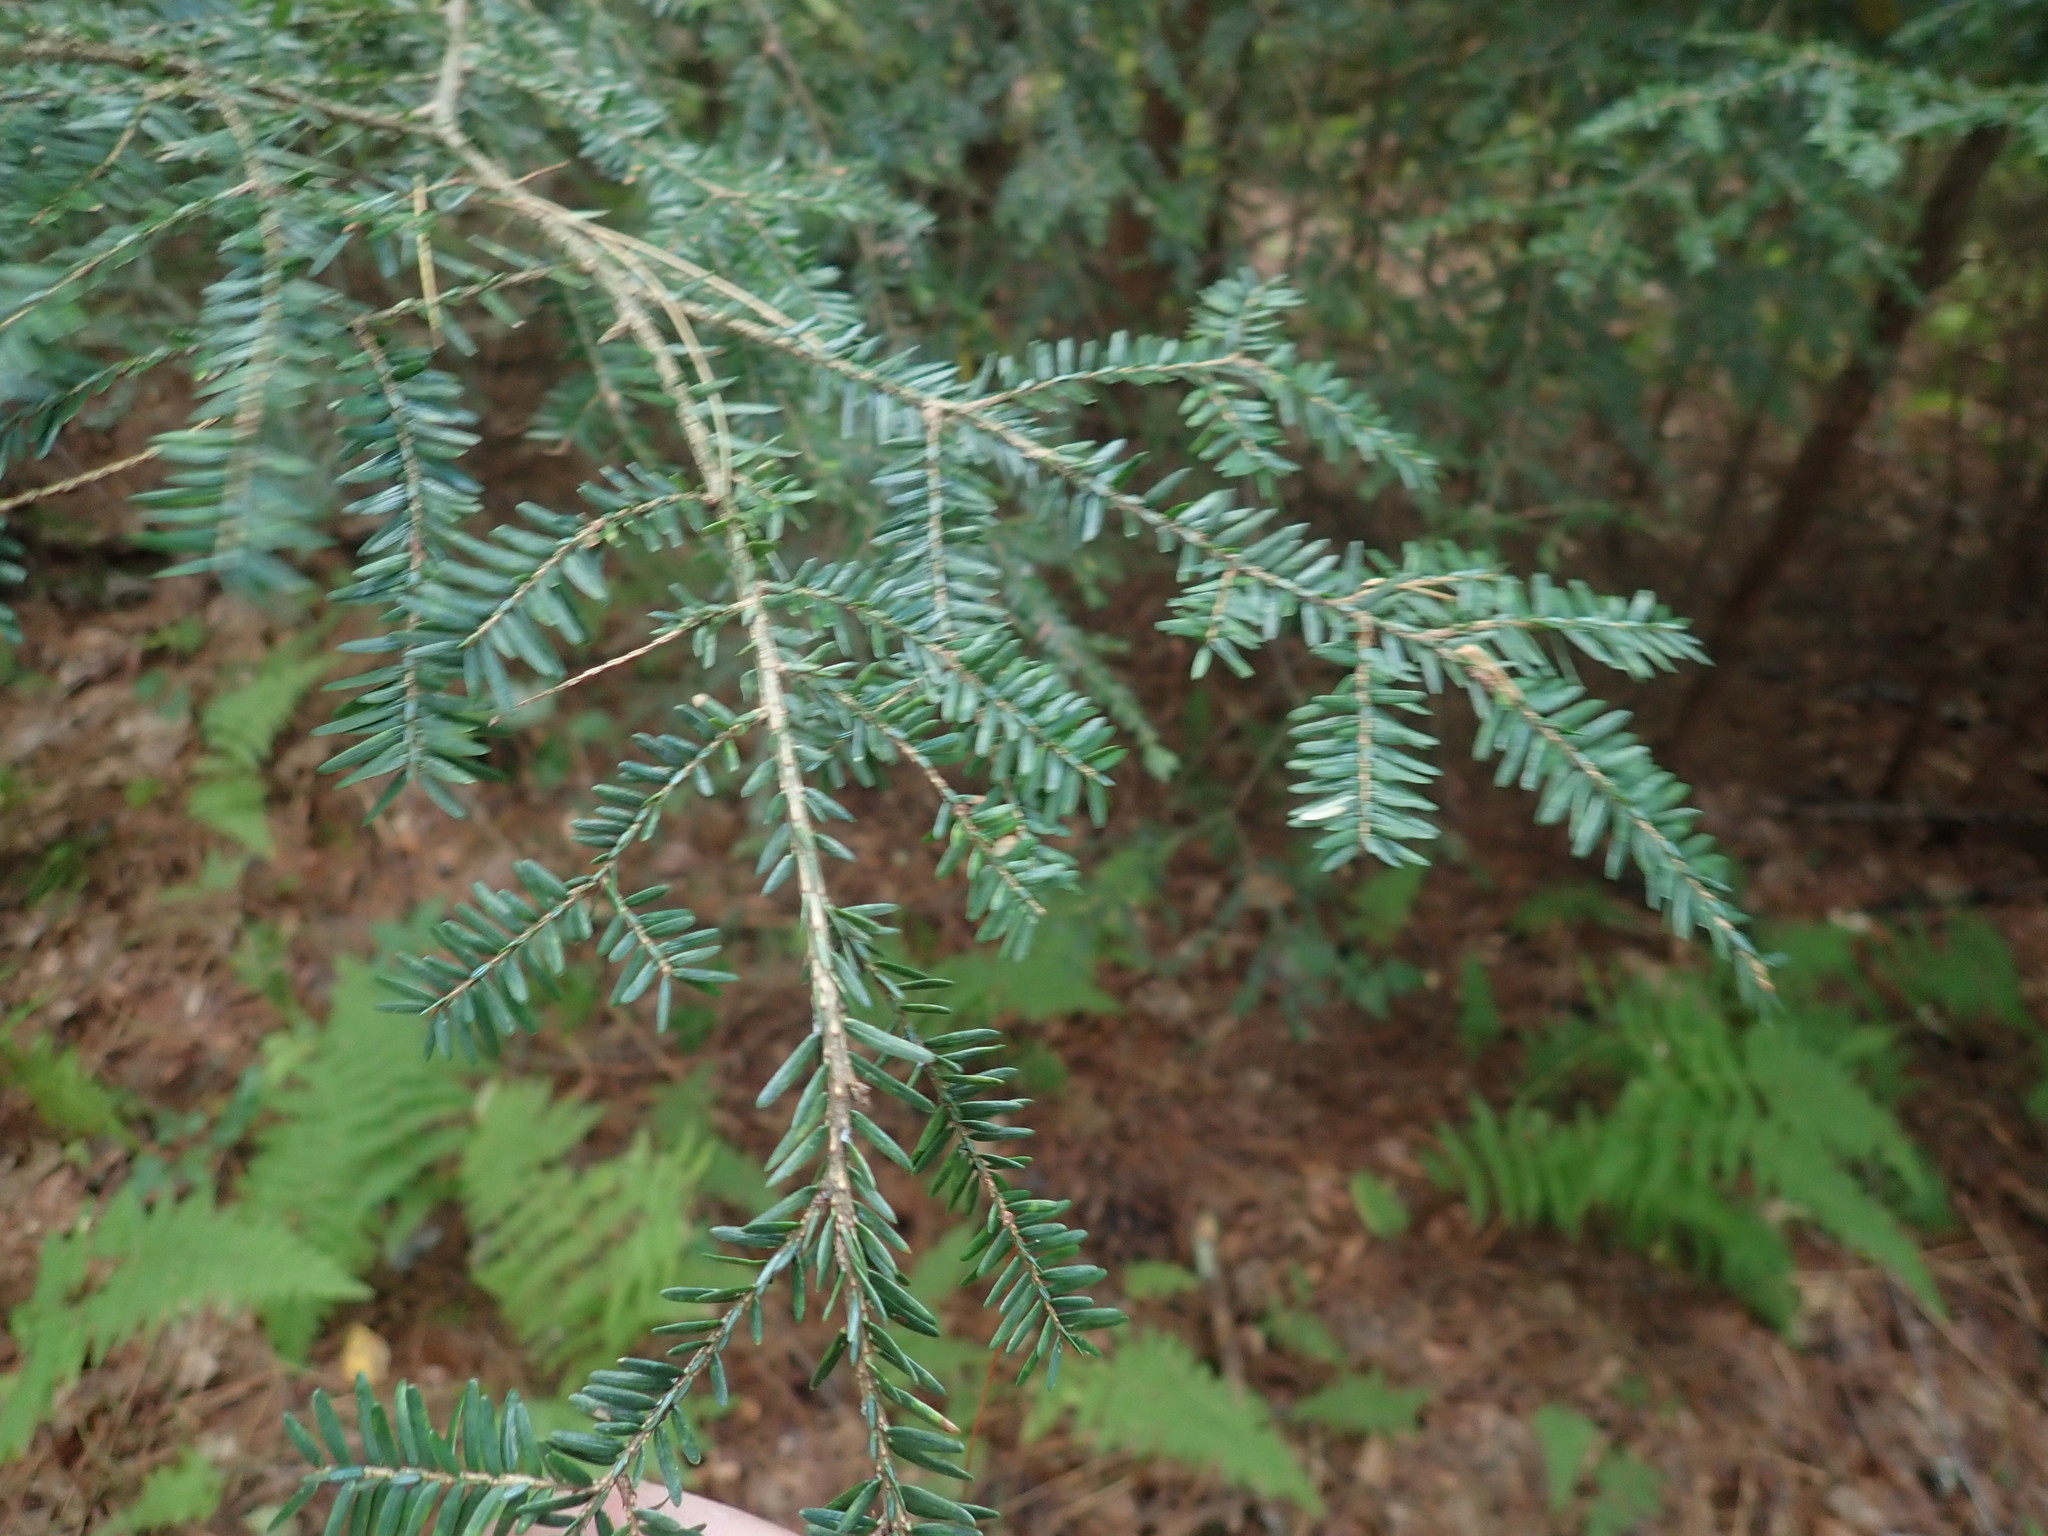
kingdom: Plantae
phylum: Tracheophyta
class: Pinopsida
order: Pinales
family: Pinaceae
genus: Tsuga
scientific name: Tsuga canadensis
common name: Eastern hemlock
